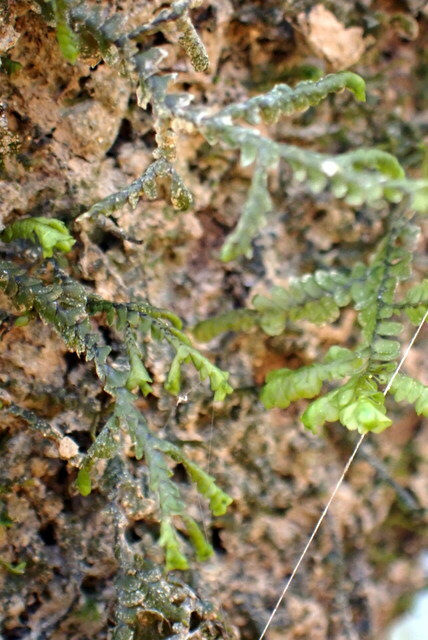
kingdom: Plantae
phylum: Marchantiophyta
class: Jungermanniopsida
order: Porellales
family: Porellaceae
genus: Porella
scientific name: Porella pinnata
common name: Pinnate scalewort
